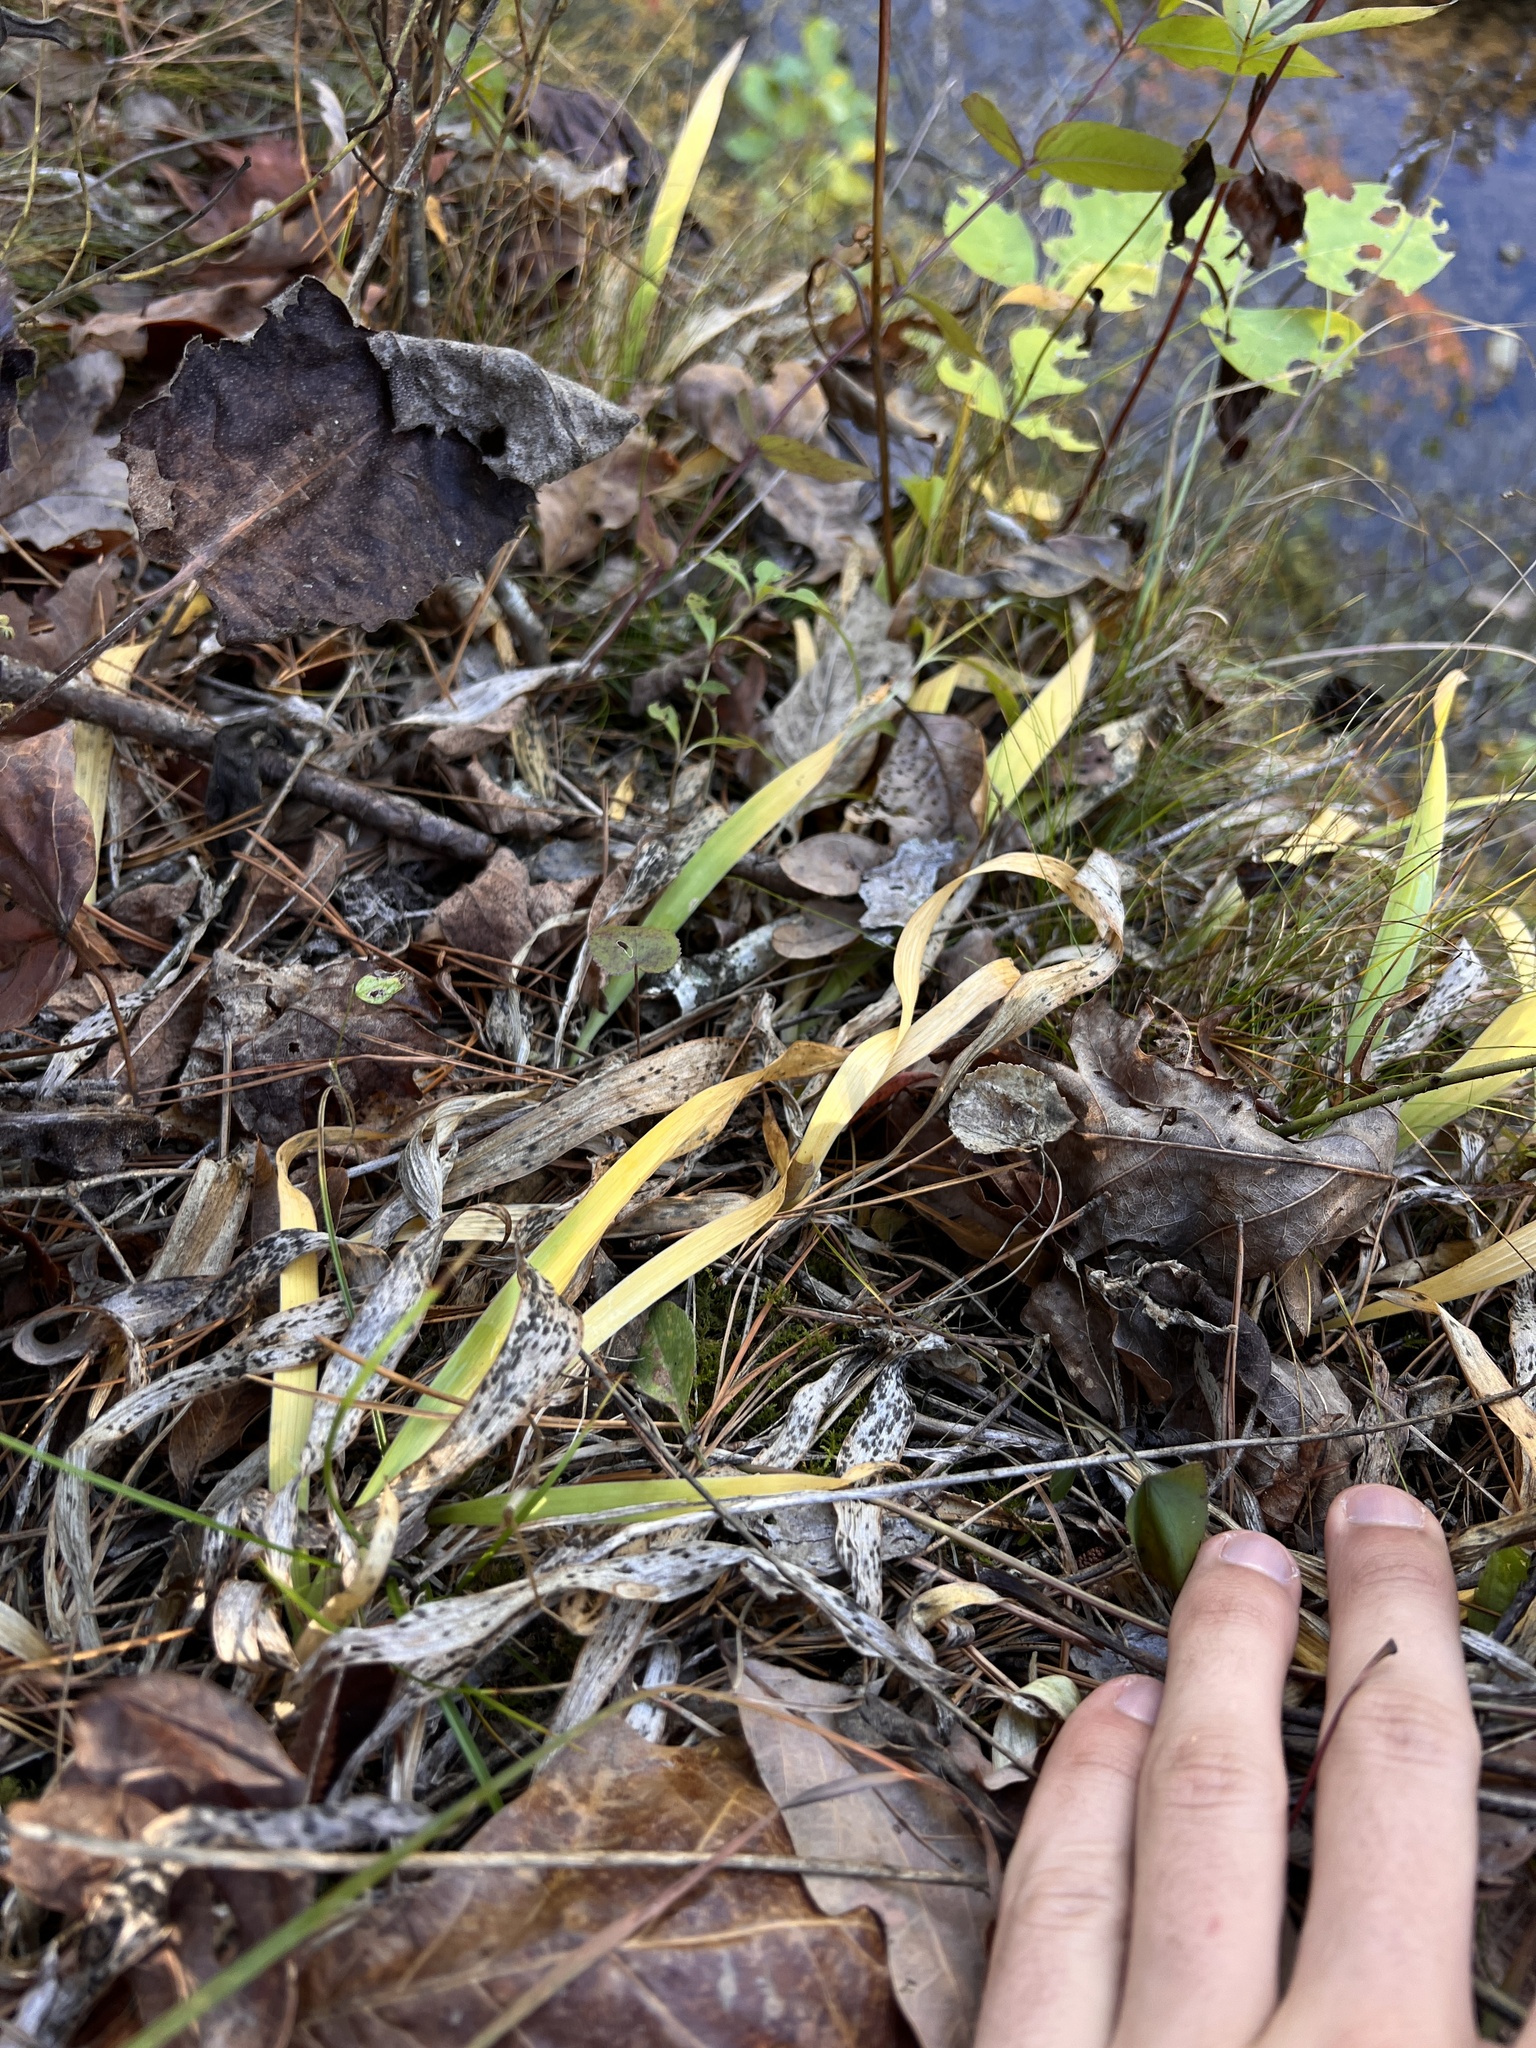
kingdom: Plantae
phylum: Tracheophyta
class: Liliopsida
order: Asparagales
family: Iridaceae
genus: Iris
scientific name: Iris cristata
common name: Crested iris
